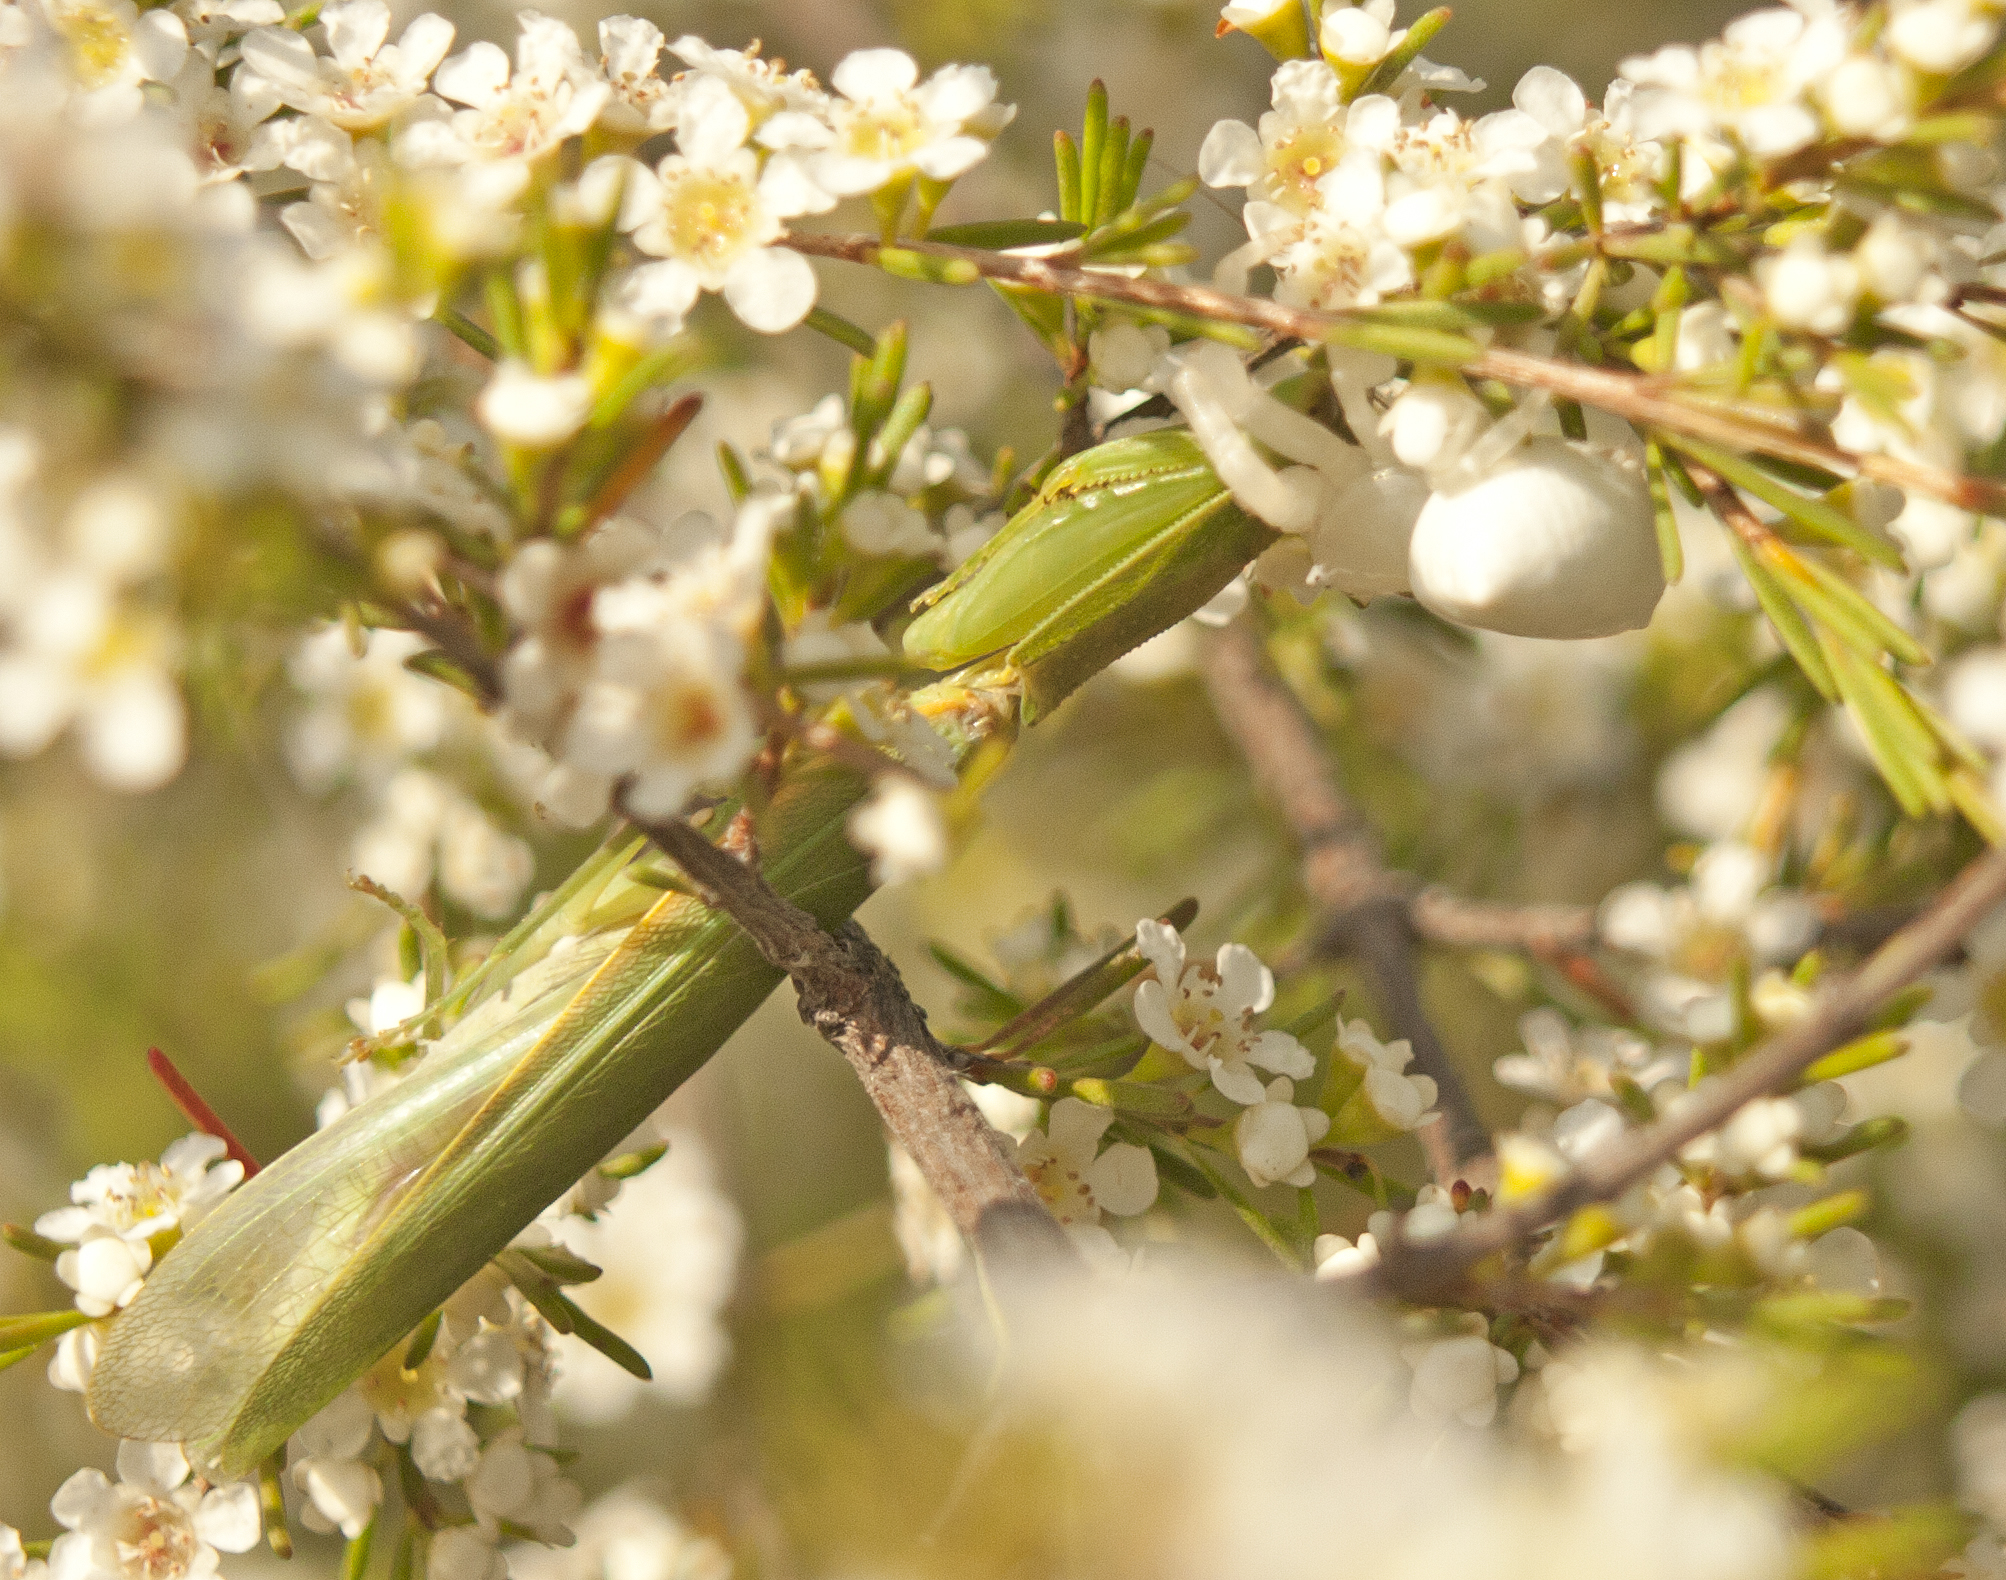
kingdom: Animalia
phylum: Arthropoda
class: Arachnida
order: Araneae
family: Thomisidae
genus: Thomisus
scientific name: Thomisus spectabilis
